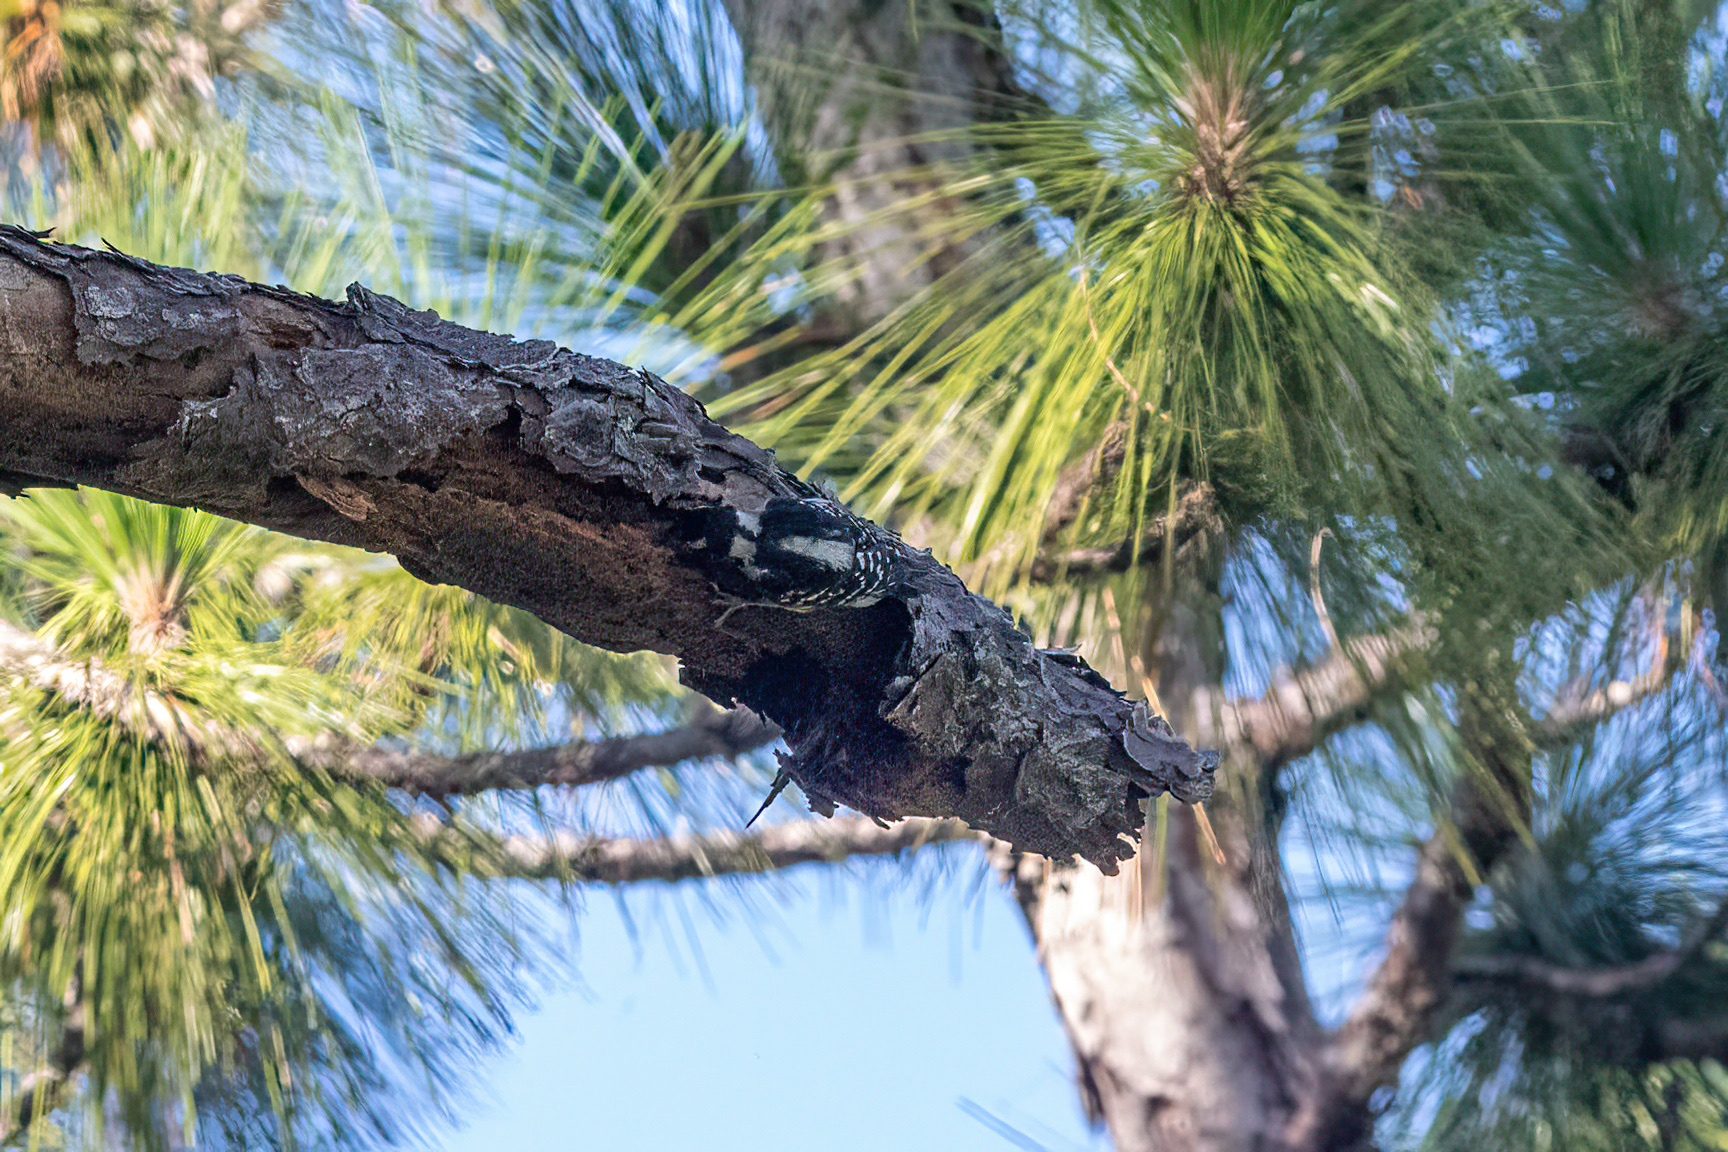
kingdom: Animalia
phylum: Chordata
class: Aves
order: Piciformes
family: Picidae
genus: Dryobates
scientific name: Dryobates
